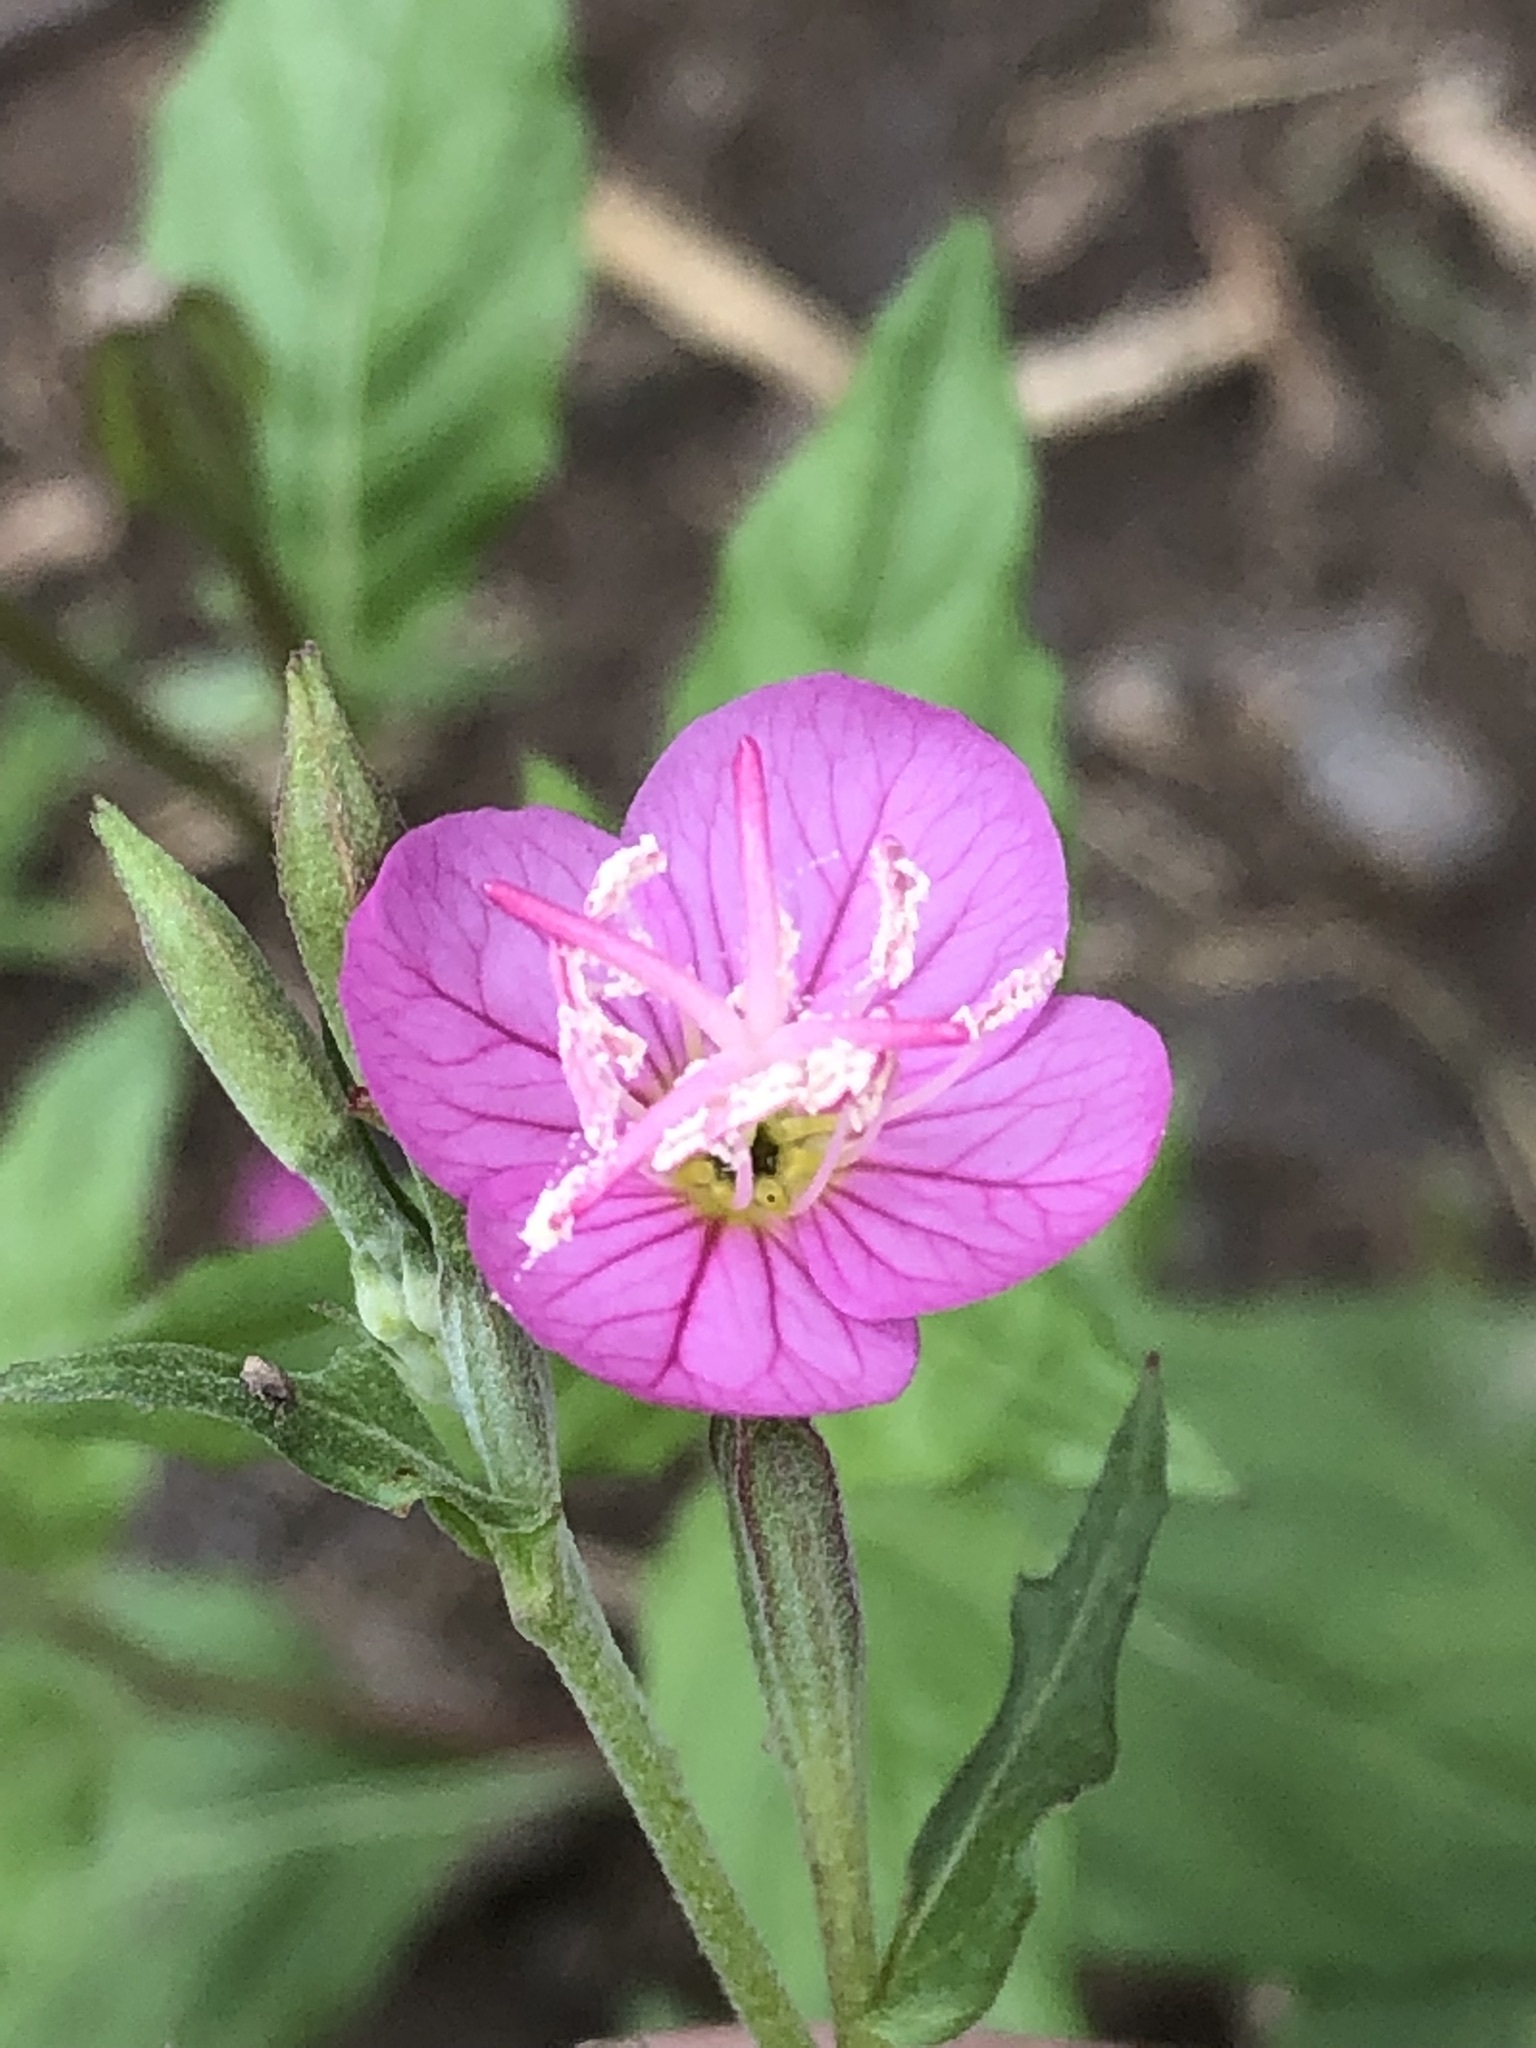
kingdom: Plantae
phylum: Tracheophyta
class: Magnoliopsida
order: Myrtales
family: Onagraceae
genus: Oenothera
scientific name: Oenothera rosea
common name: Rosy evening-primrose
